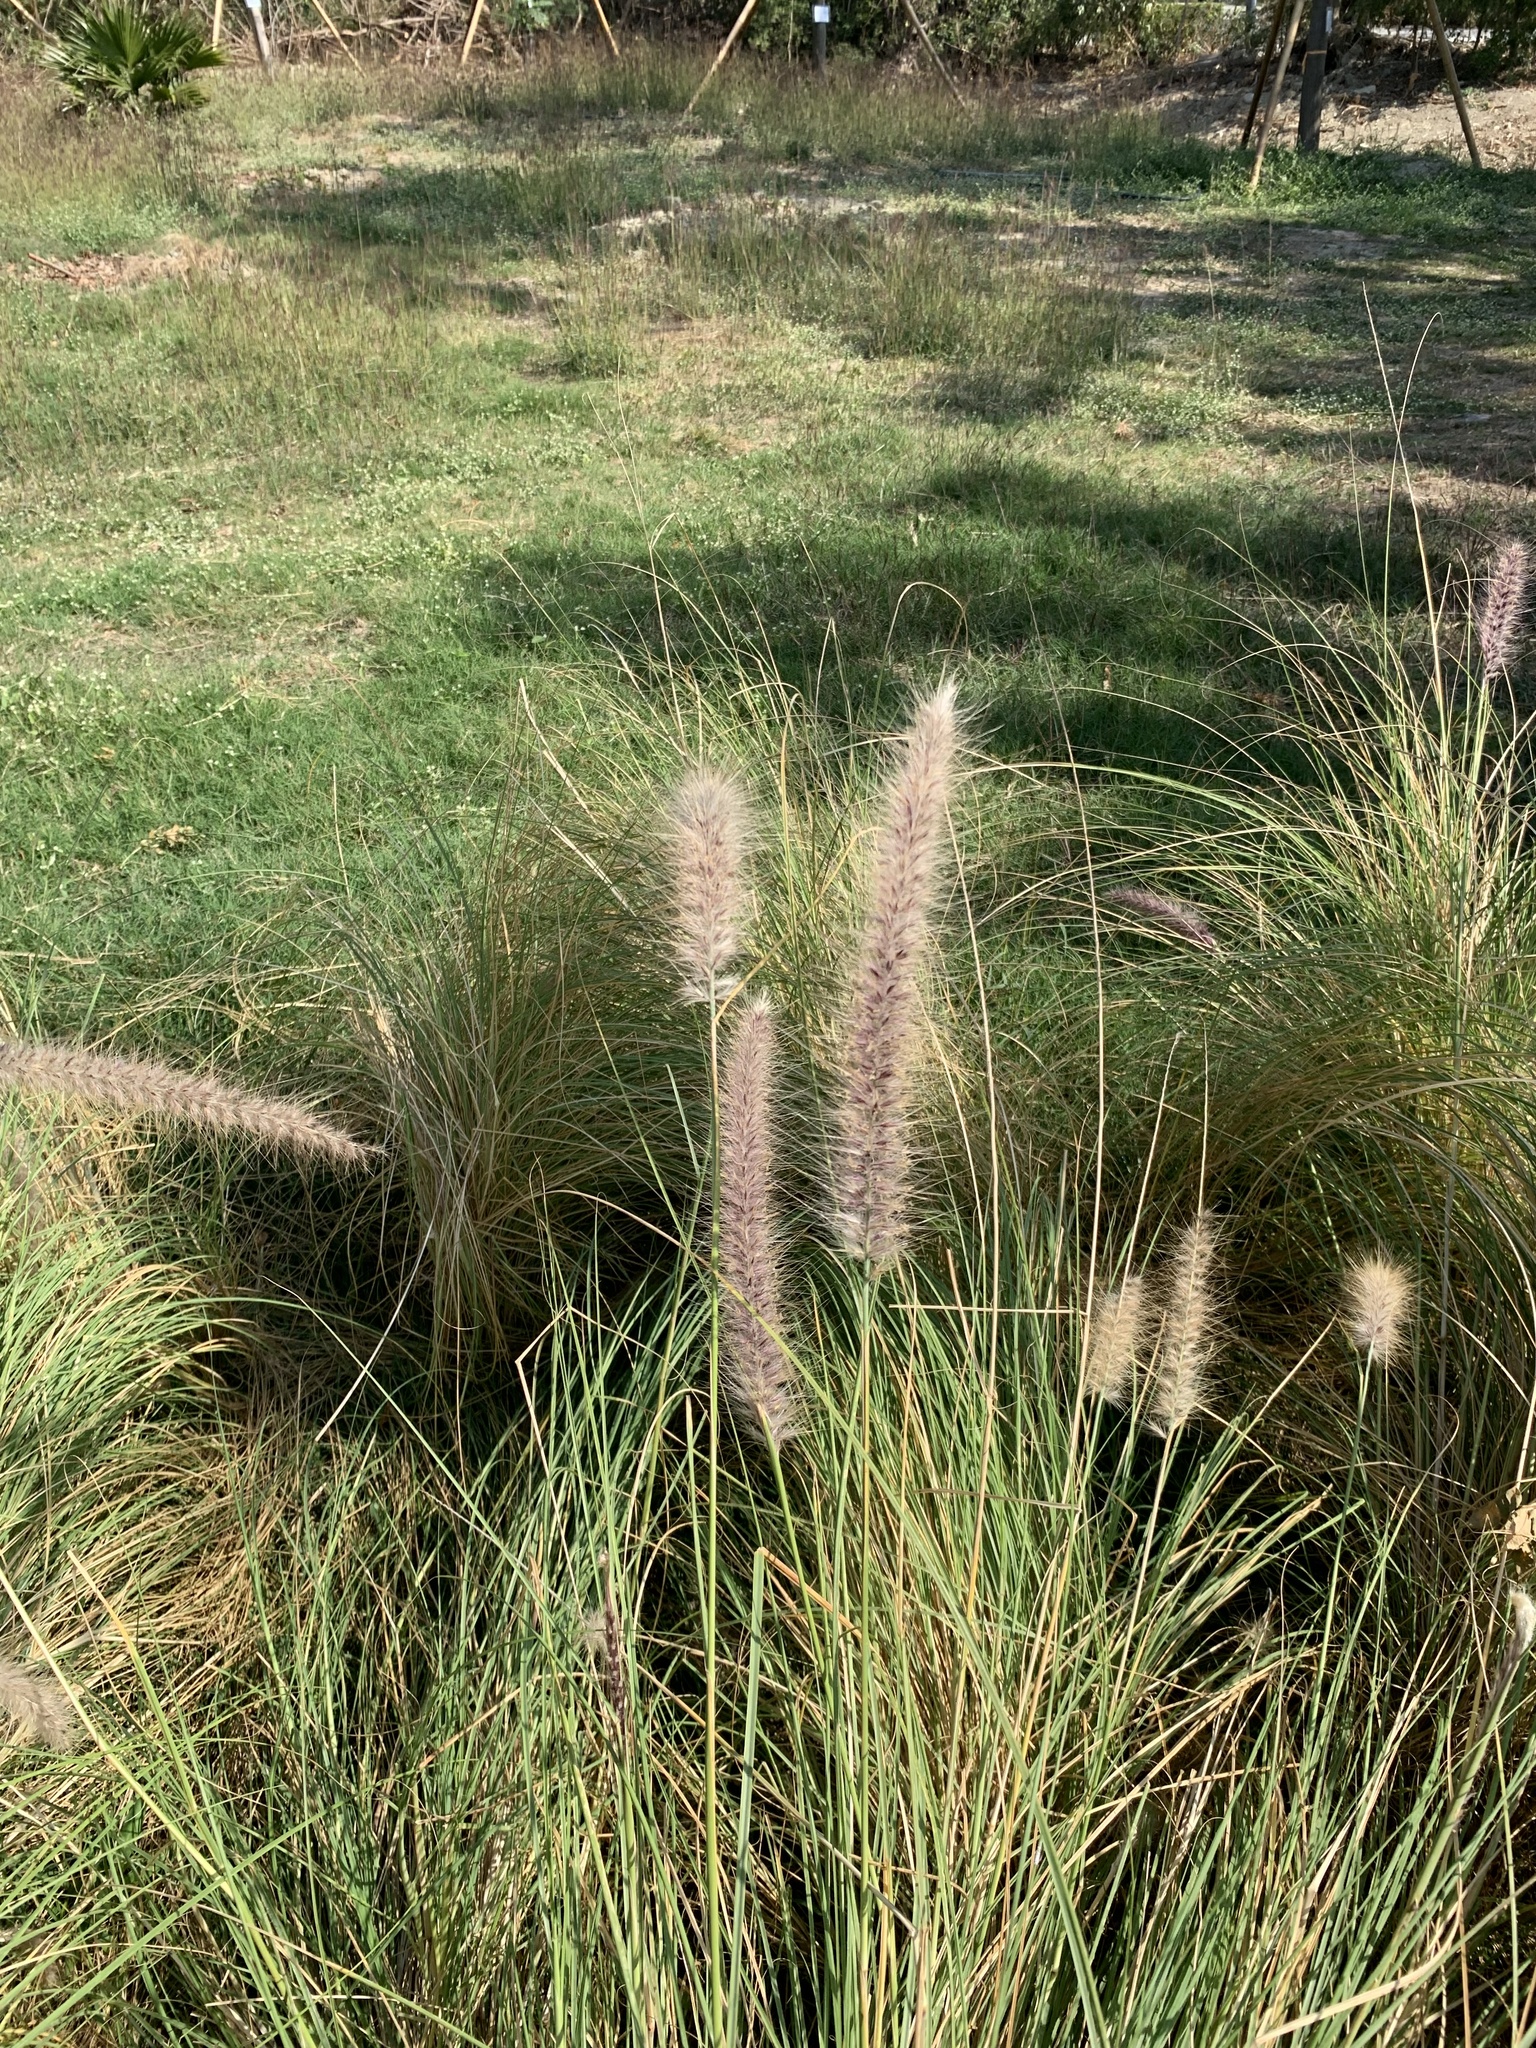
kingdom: Plantae
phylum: Tracheophyta
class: Liliopsida
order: Poales
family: Poaceae
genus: Cenchrus
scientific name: Cenchrus setosus
